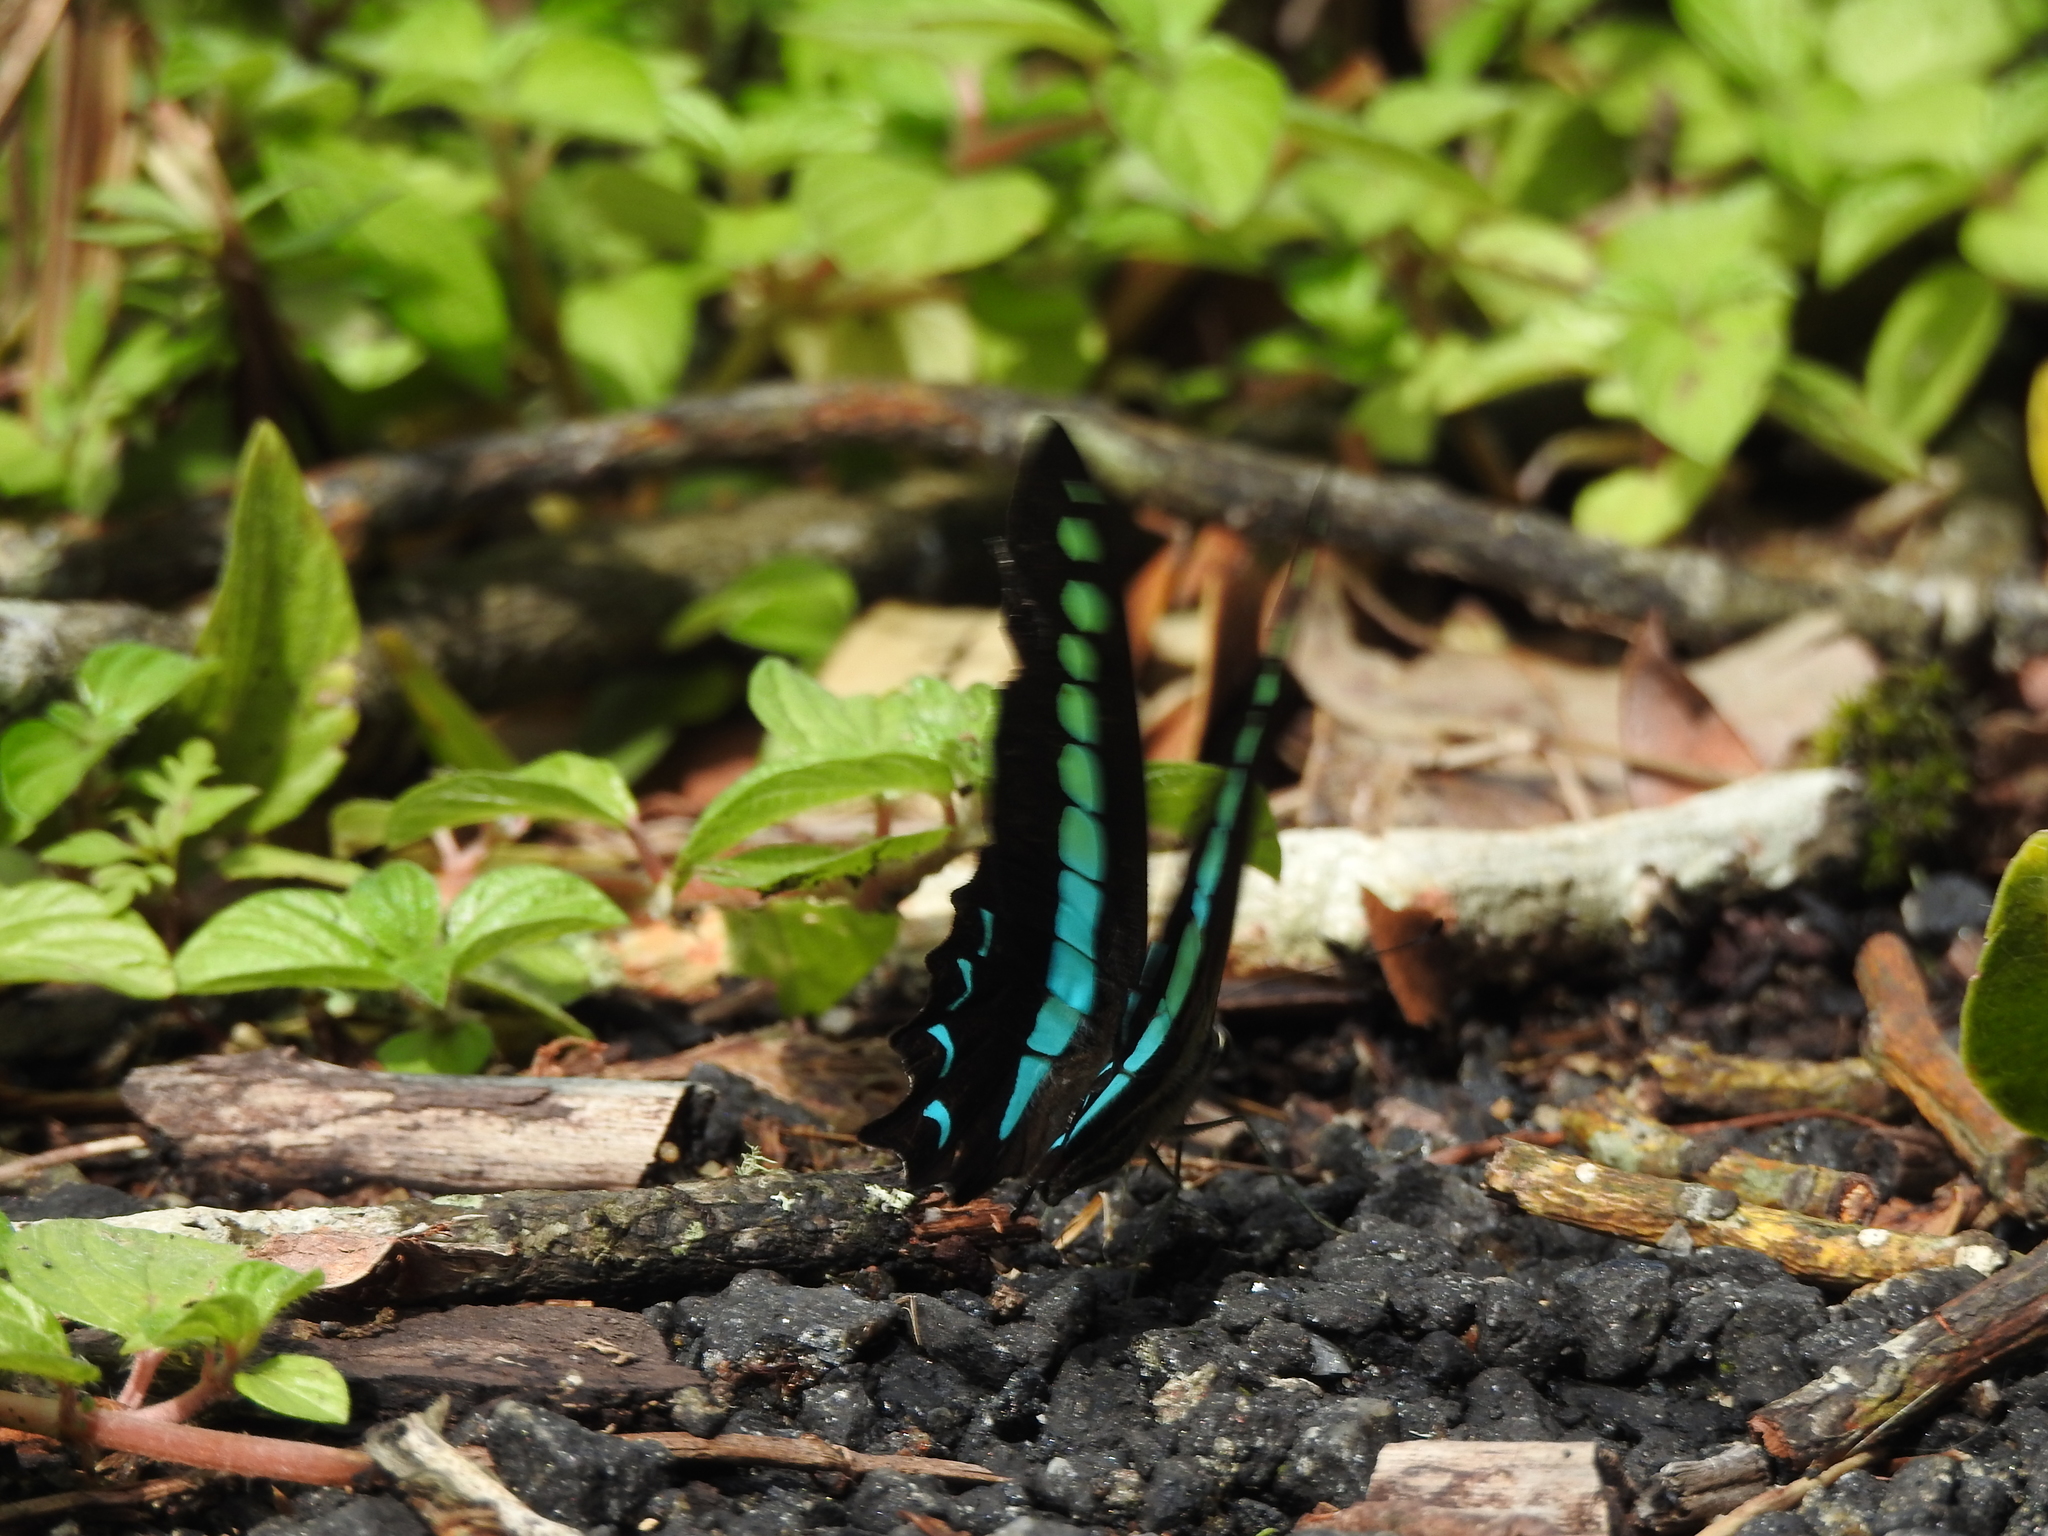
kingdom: Animalia
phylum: Arthropoda
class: Insecta
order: Lepidoptera
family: Papilionidae
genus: Graphium
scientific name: Graphium
